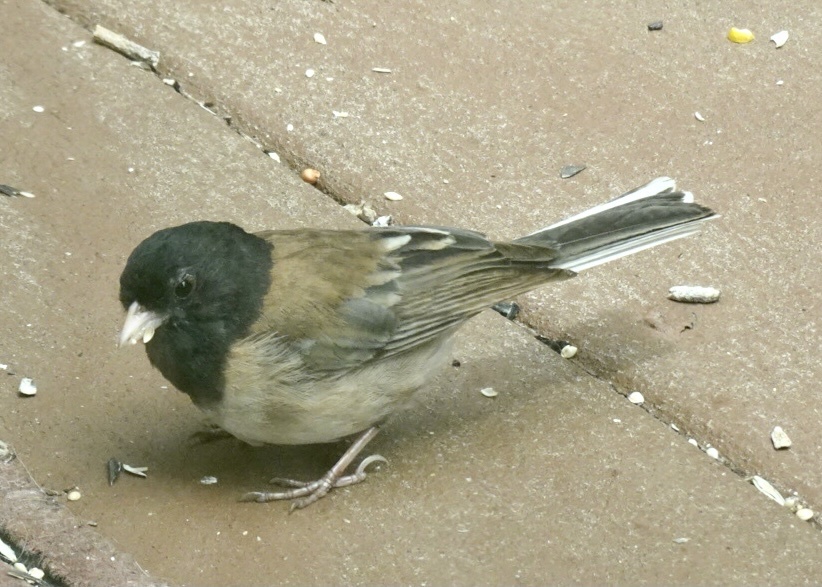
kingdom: Animalia
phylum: Chordata
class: Aves
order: Passeriformes
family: Passerellidae
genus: Junco
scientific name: Junco hyemalis
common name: Dark-eyed junco
